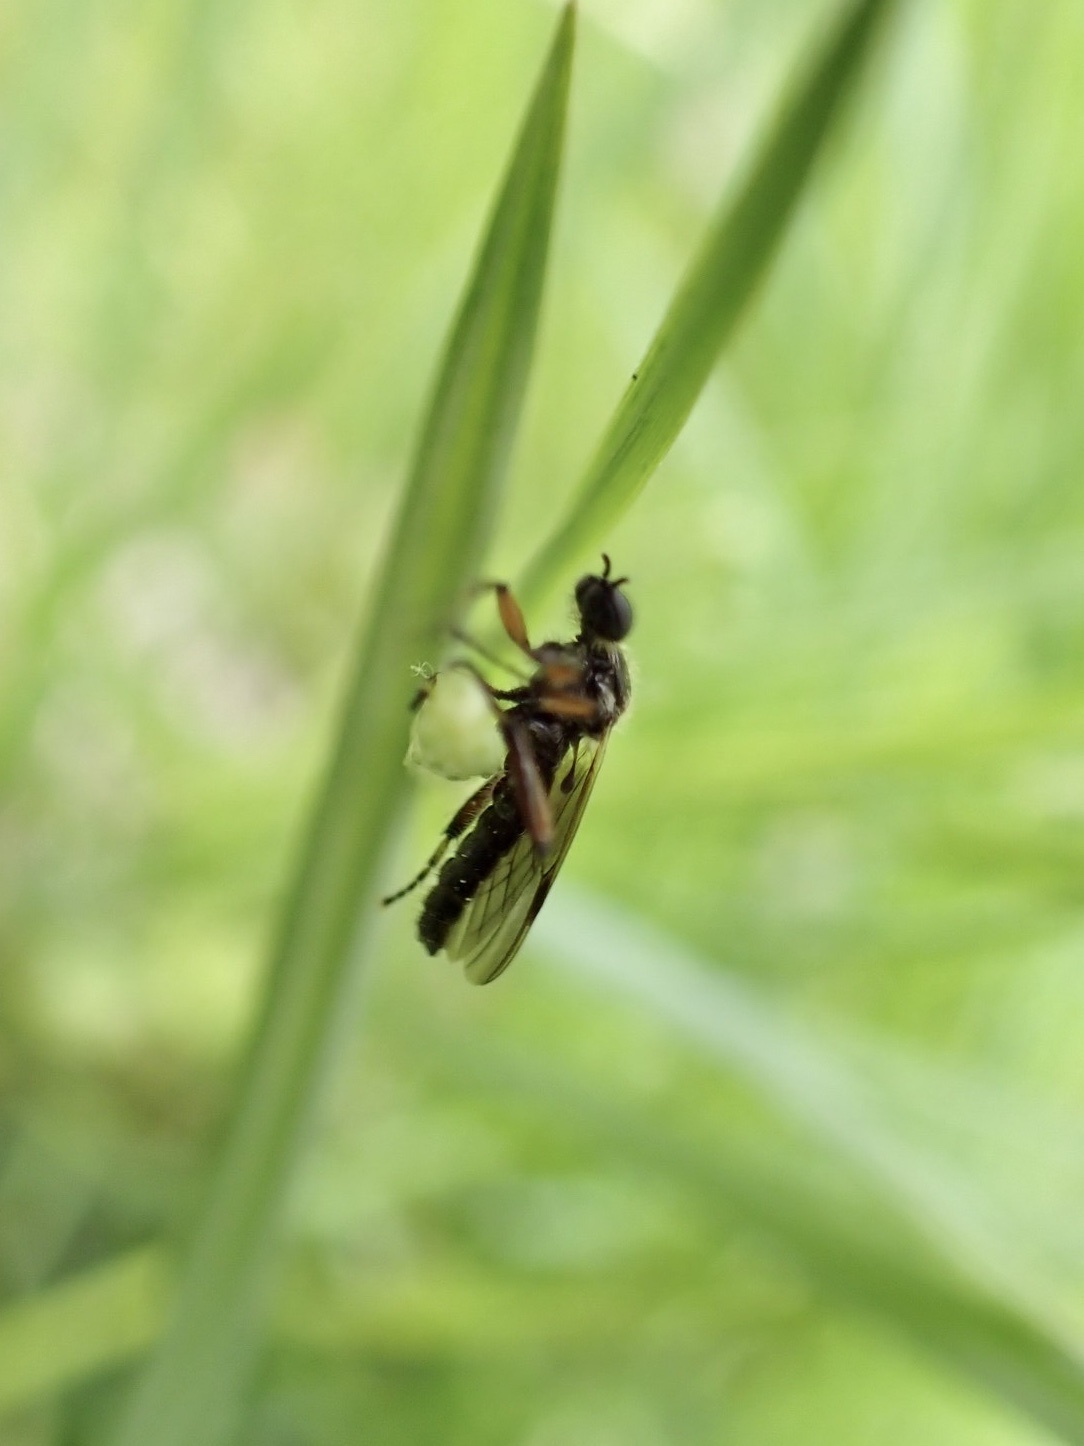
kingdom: Animalia
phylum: Arthropoda
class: Insecta
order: Diptera
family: Bibionidae
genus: Bibio
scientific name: Bibio articulatus
